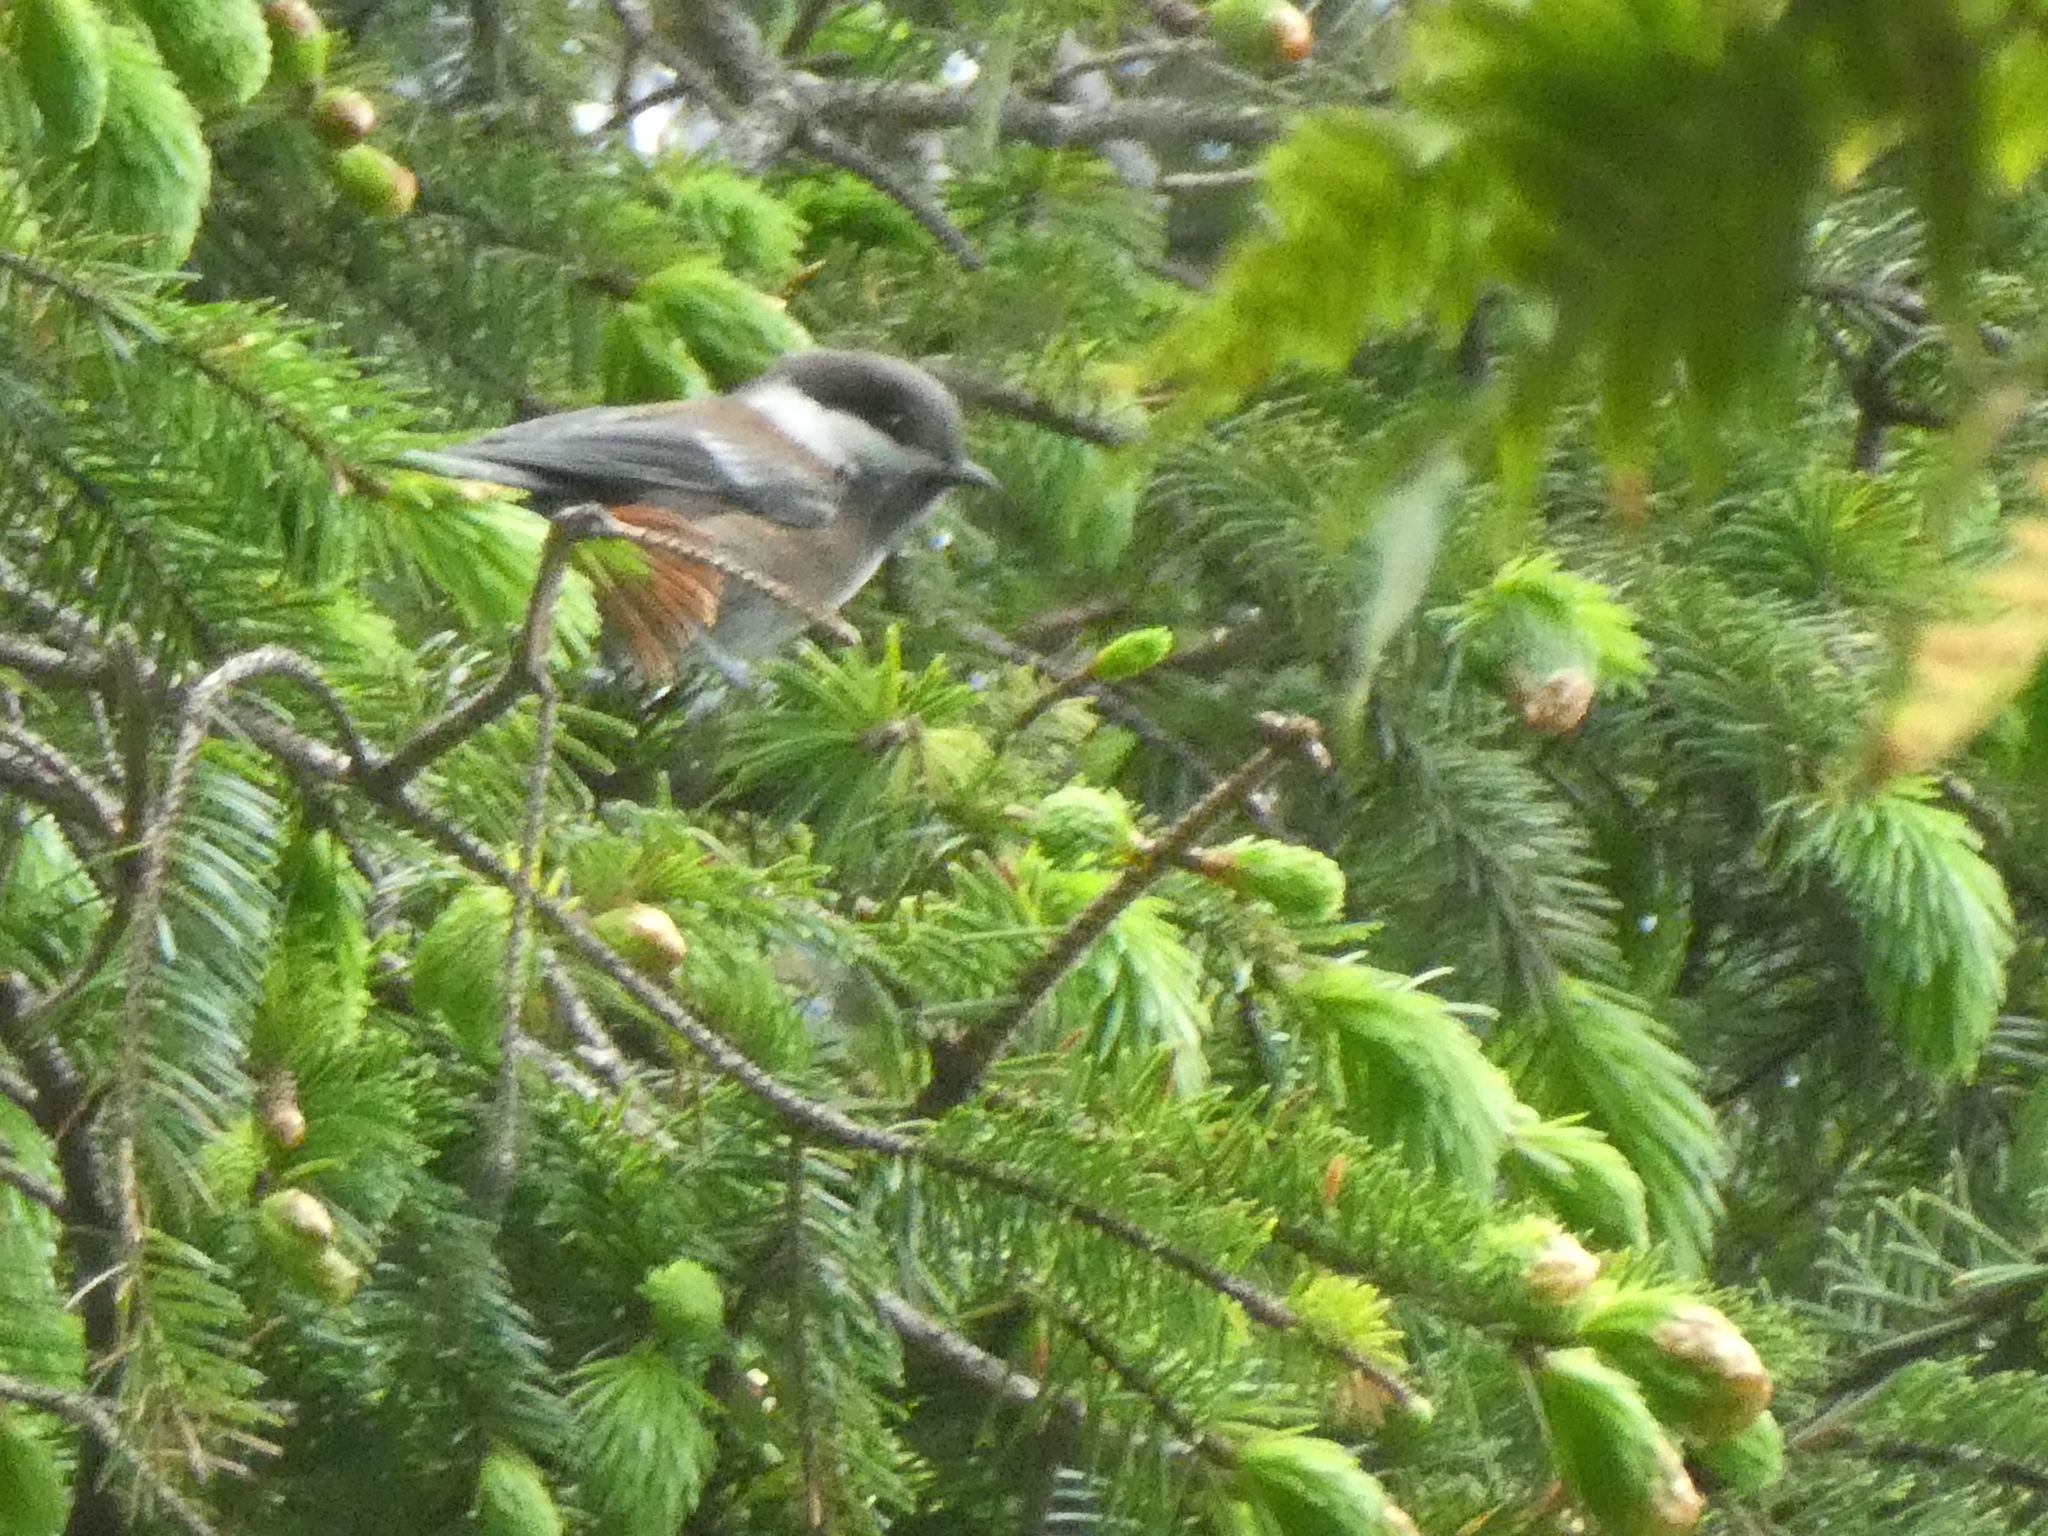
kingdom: Animalia
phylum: Chordata
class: Aves
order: Passeriformes
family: Paridae
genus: Poecile
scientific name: Poecile rufescens
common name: Chestnut-backed chickadee
